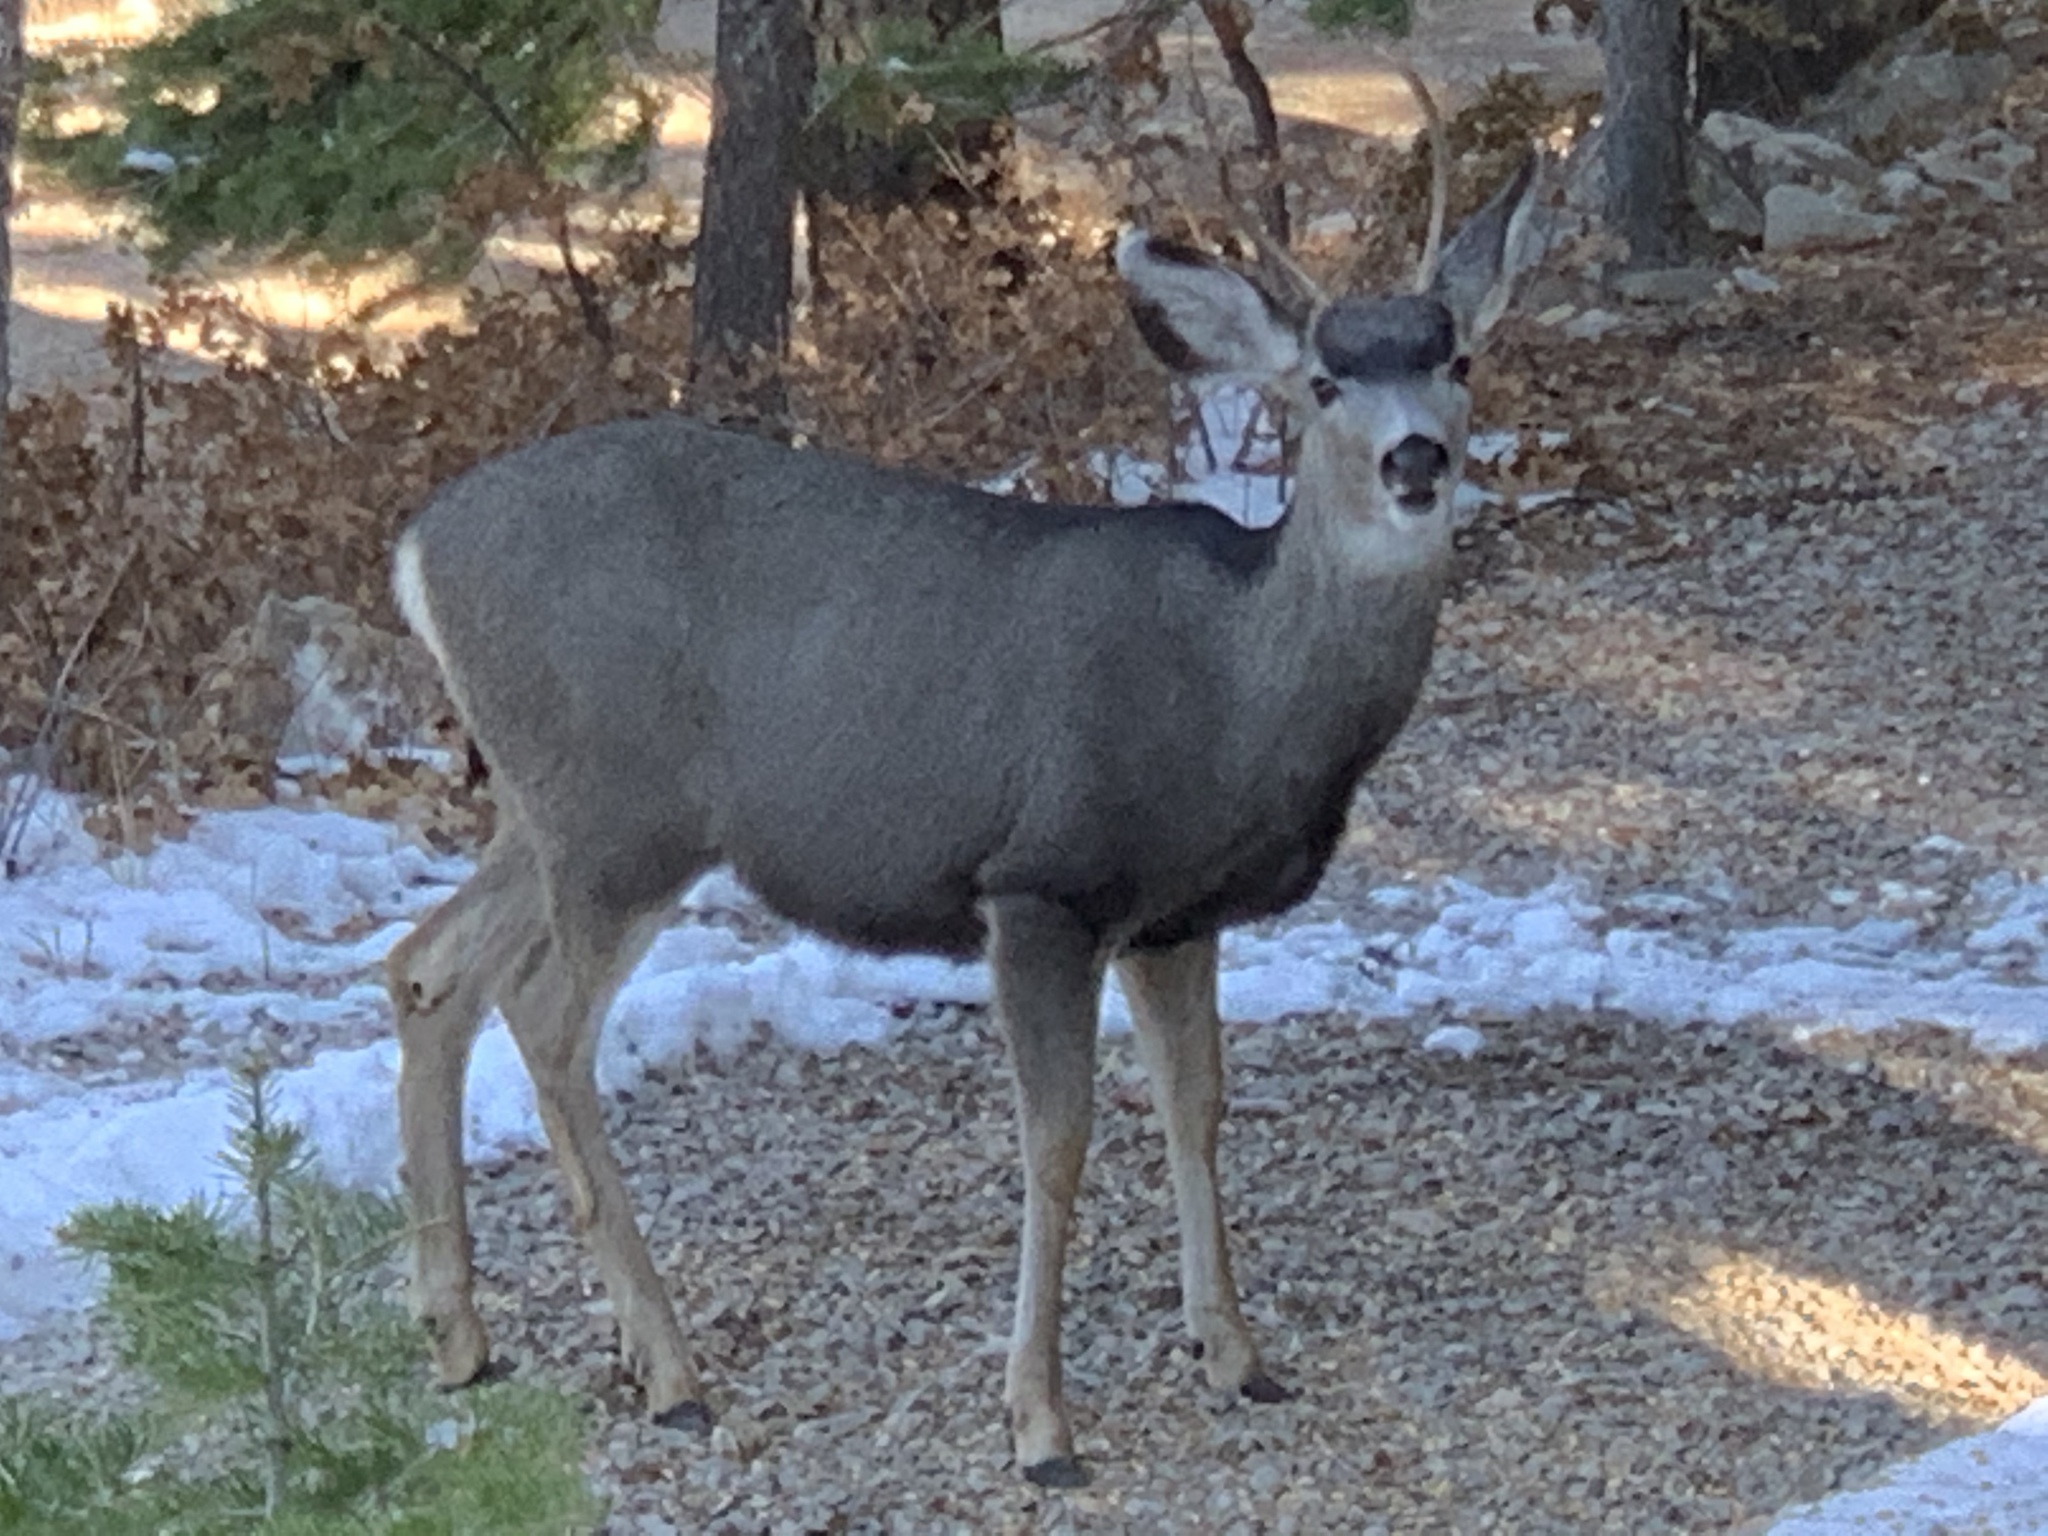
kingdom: Animalia
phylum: Chordata
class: Mammalia
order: Artiodactyla
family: Cervidae
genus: Odocoileus
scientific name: Odocoileus hemionus
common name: Mule deer
